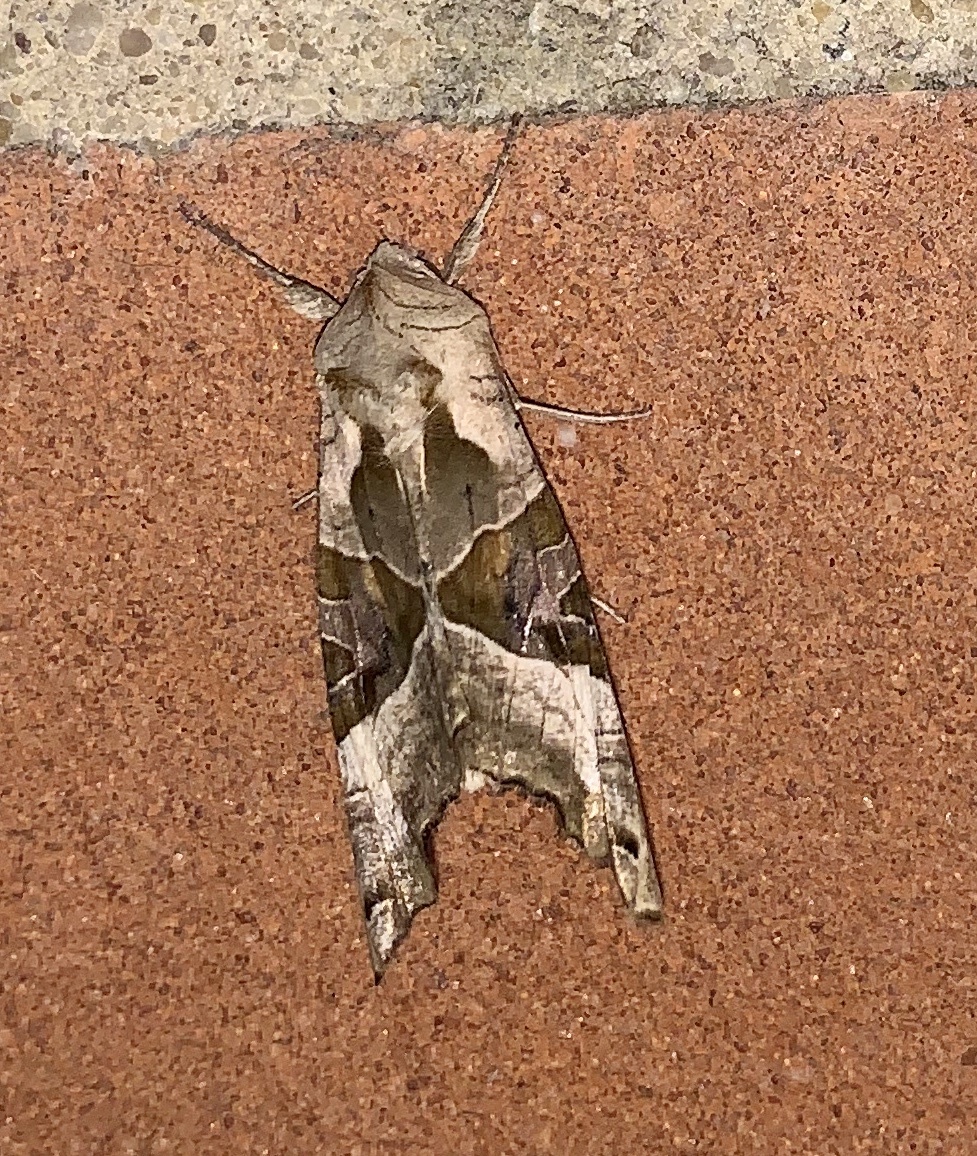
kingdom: Animalia
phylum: Arthropoda
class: Insecta
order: Lepidoptera
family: Noctuidae
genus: Phlogophora
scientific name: Phlogophora meticulosa
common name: Angle shades
